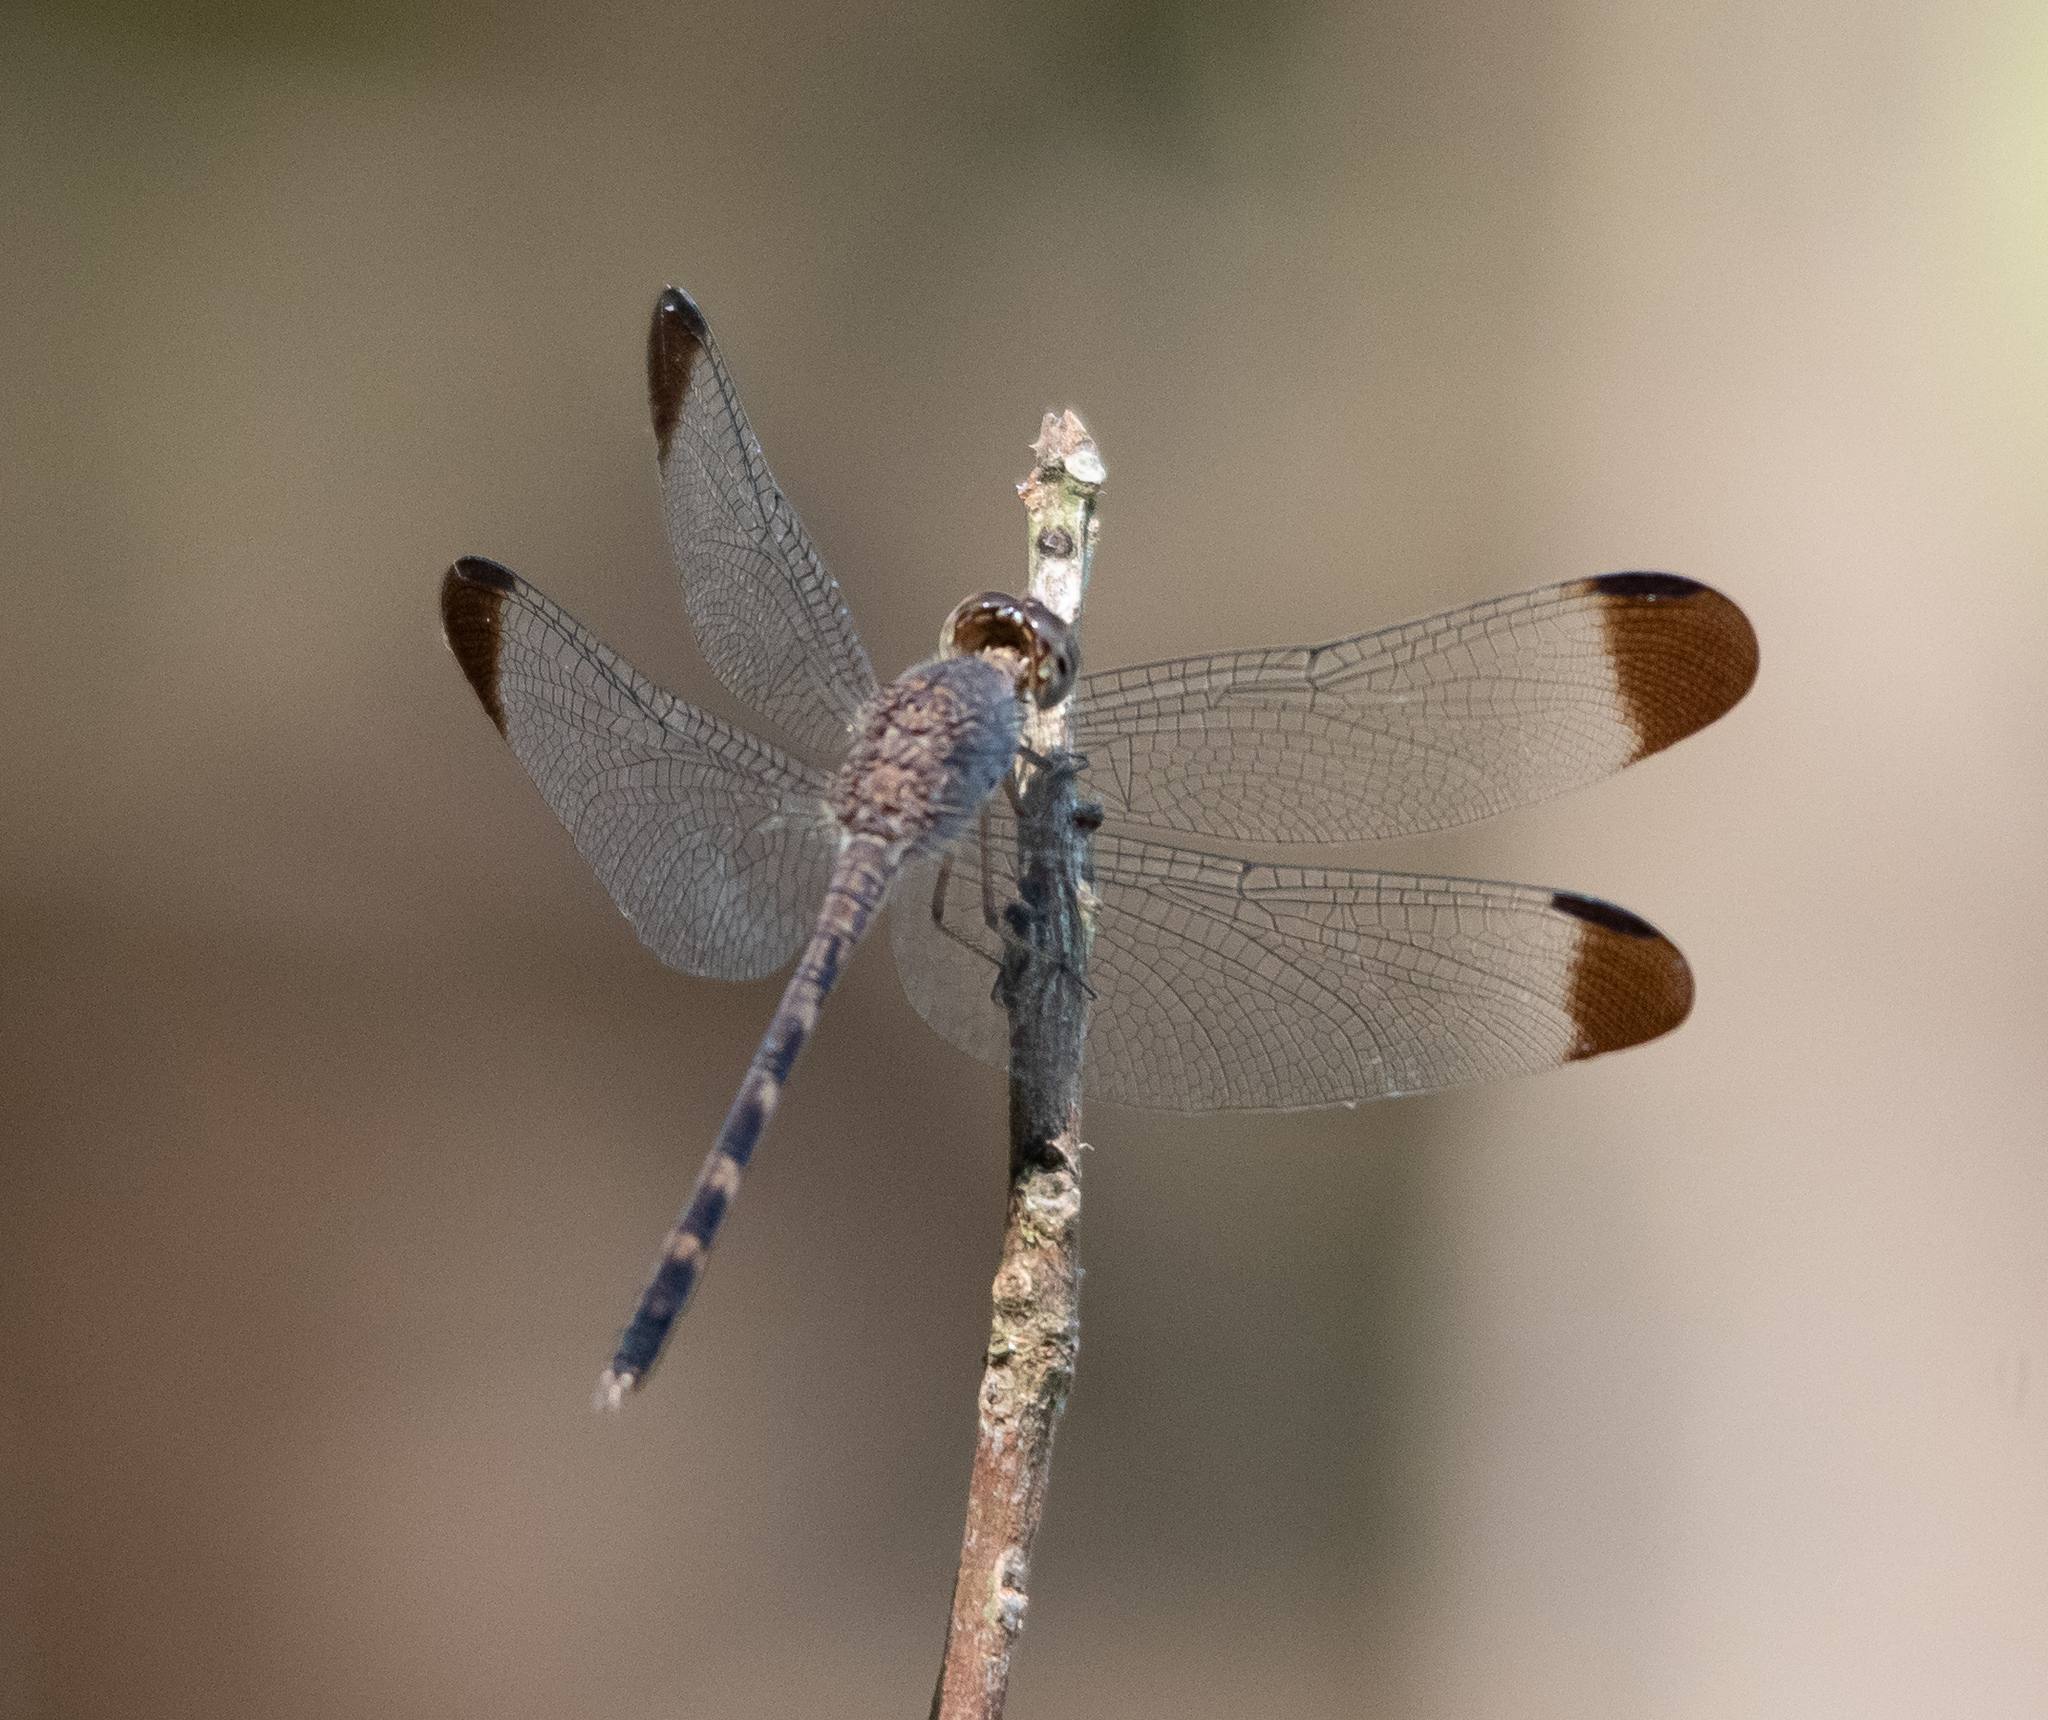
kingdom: Animalia
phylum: Arthropoda
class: Insecta
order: Odonata
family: Libellulidae
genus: Uracis
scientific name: Uracis imbuta
